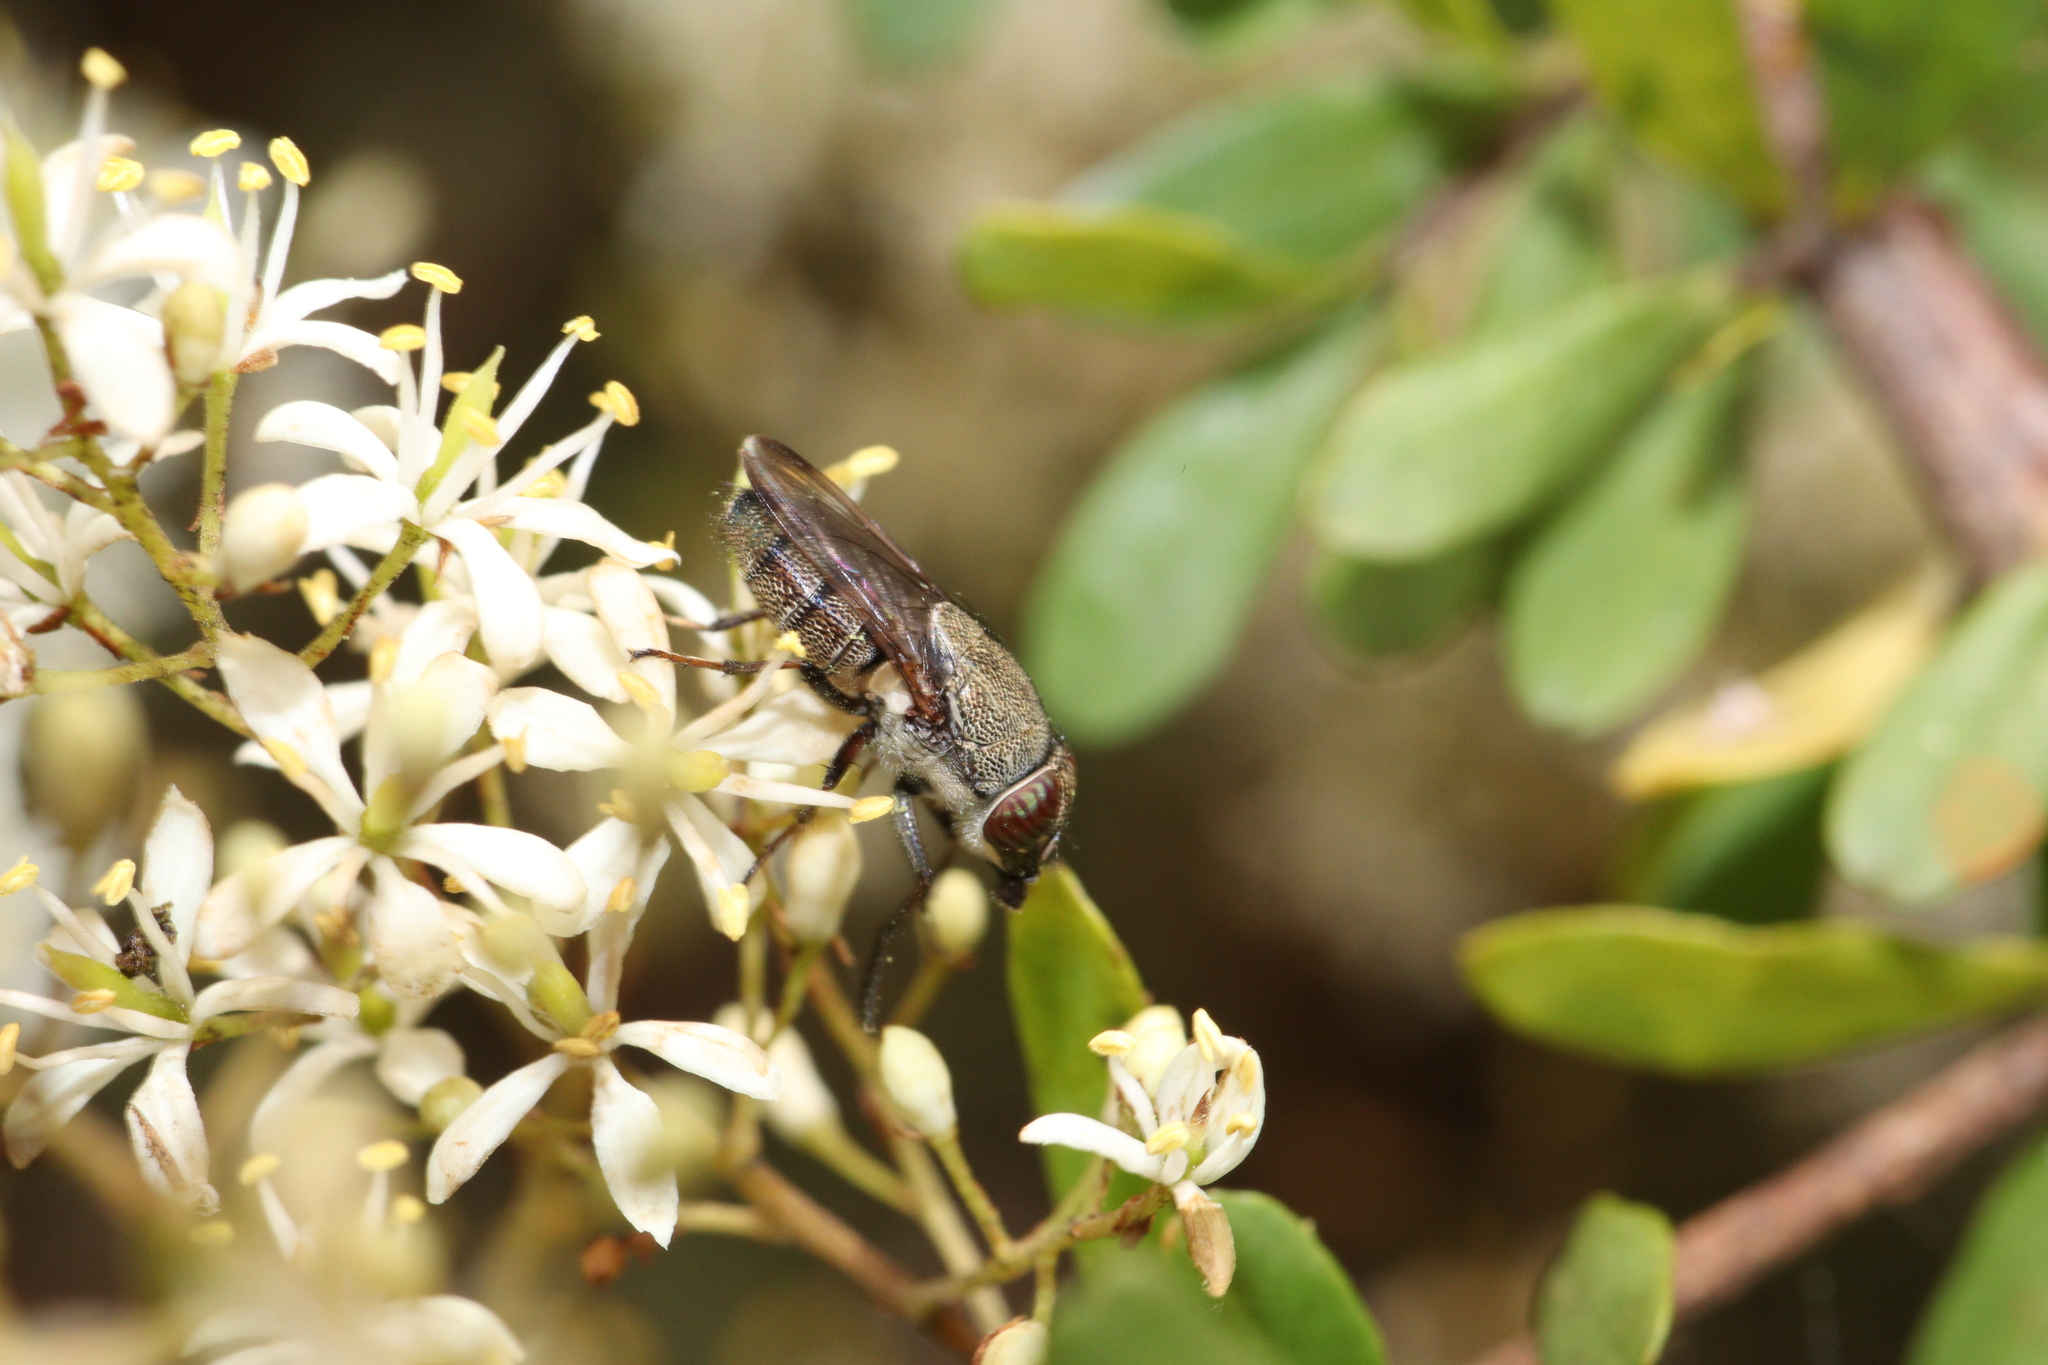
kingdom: Plantae
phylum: Tracheophyta
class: Magnoliopsida
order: Apiales
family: Pittosporaceae
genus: Bursaria
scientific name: Bursaria spinosa
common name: Australian blackthorn
